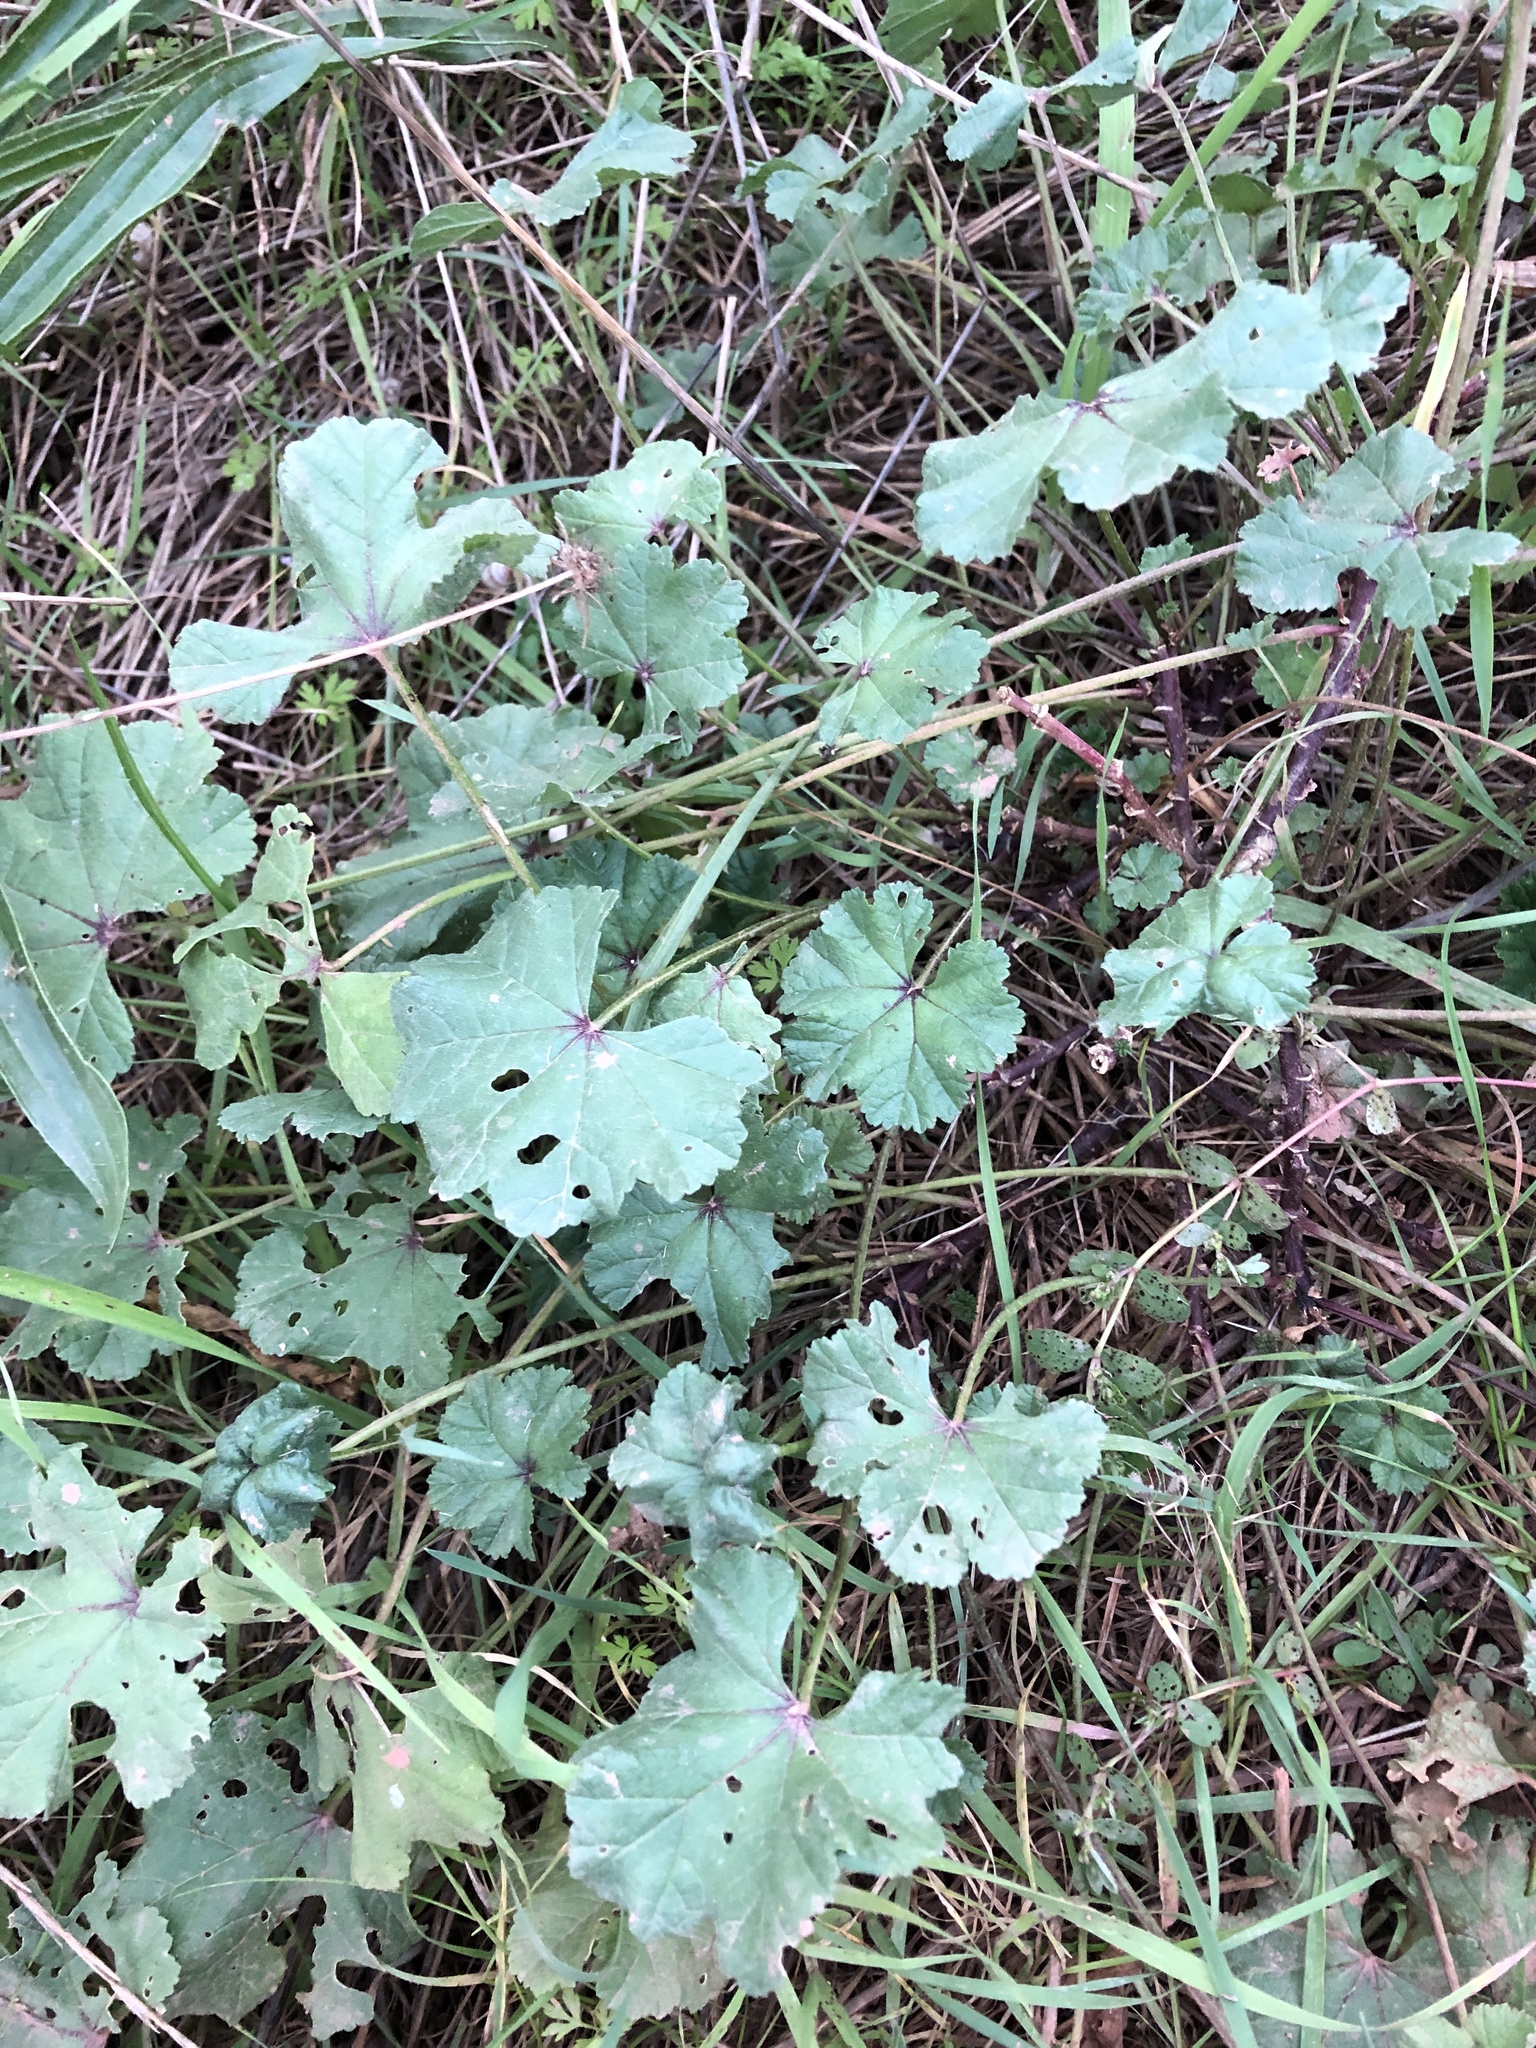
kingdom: Plantae
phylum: Tracheophyta
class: Magnoliopsida
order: Malvales
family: Malvaceae
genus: Malva
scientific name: Malva sylvestris
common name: Common mallow
